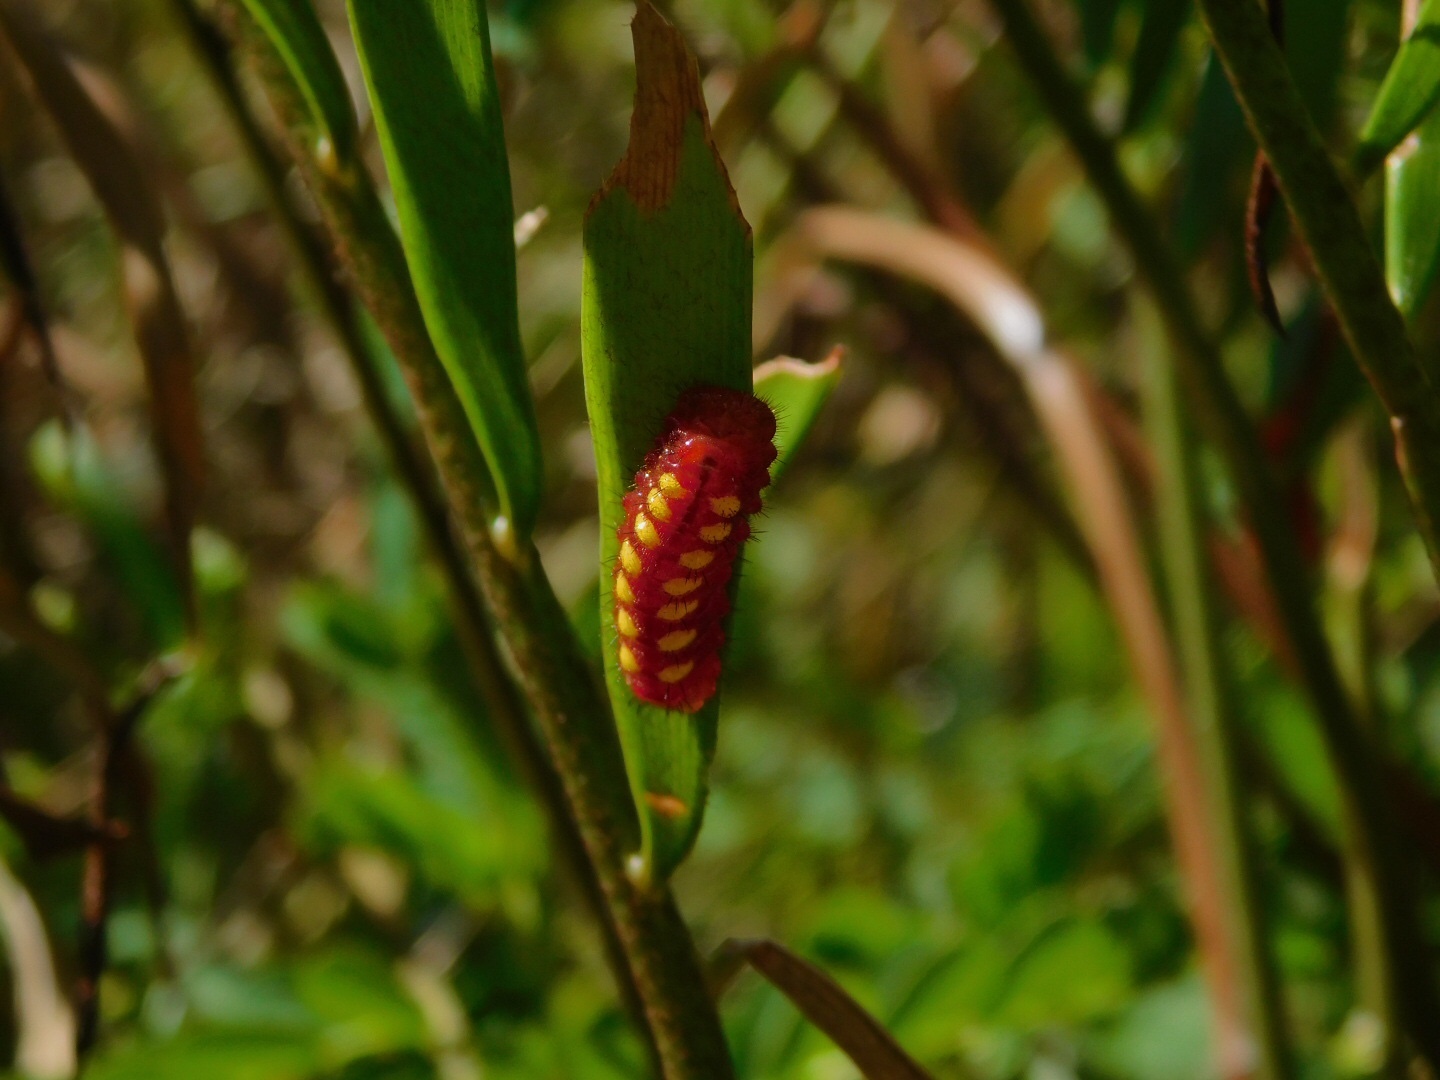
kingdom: Animalia
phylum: Arthropoda
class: Insecta
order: Lepidoptera
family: Lycaenidae
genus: Eumaeus
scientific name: Eumaeus atala
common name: Atala
